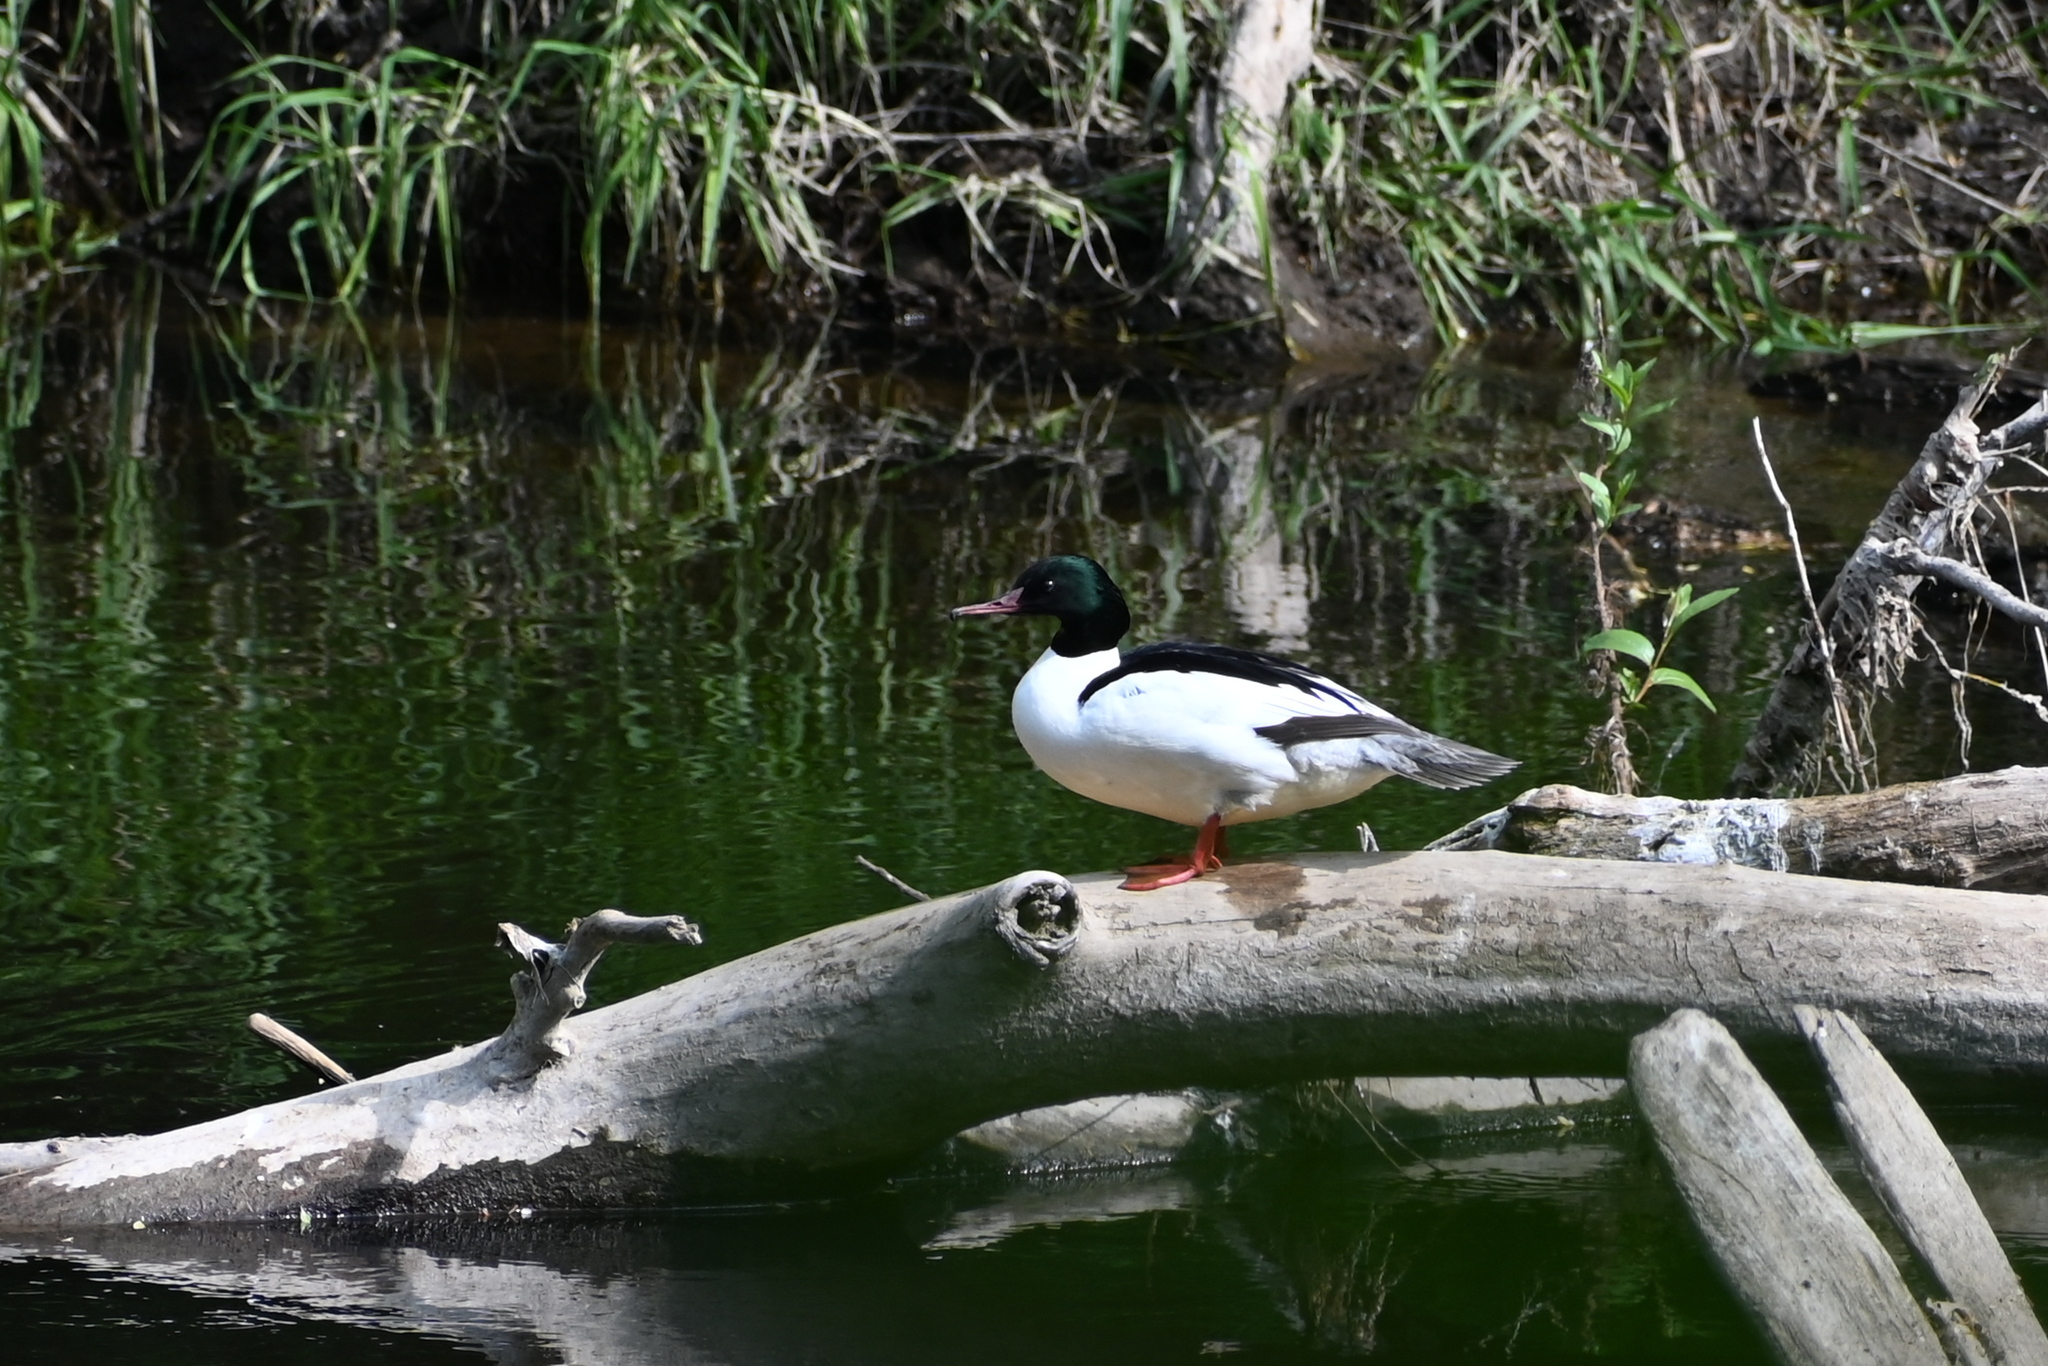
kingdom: Animalia
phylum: Chordata
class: Aves
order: Anseriformes
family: Anatidae
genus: Mergus
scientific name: Mergus merganser
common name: Common merganser
